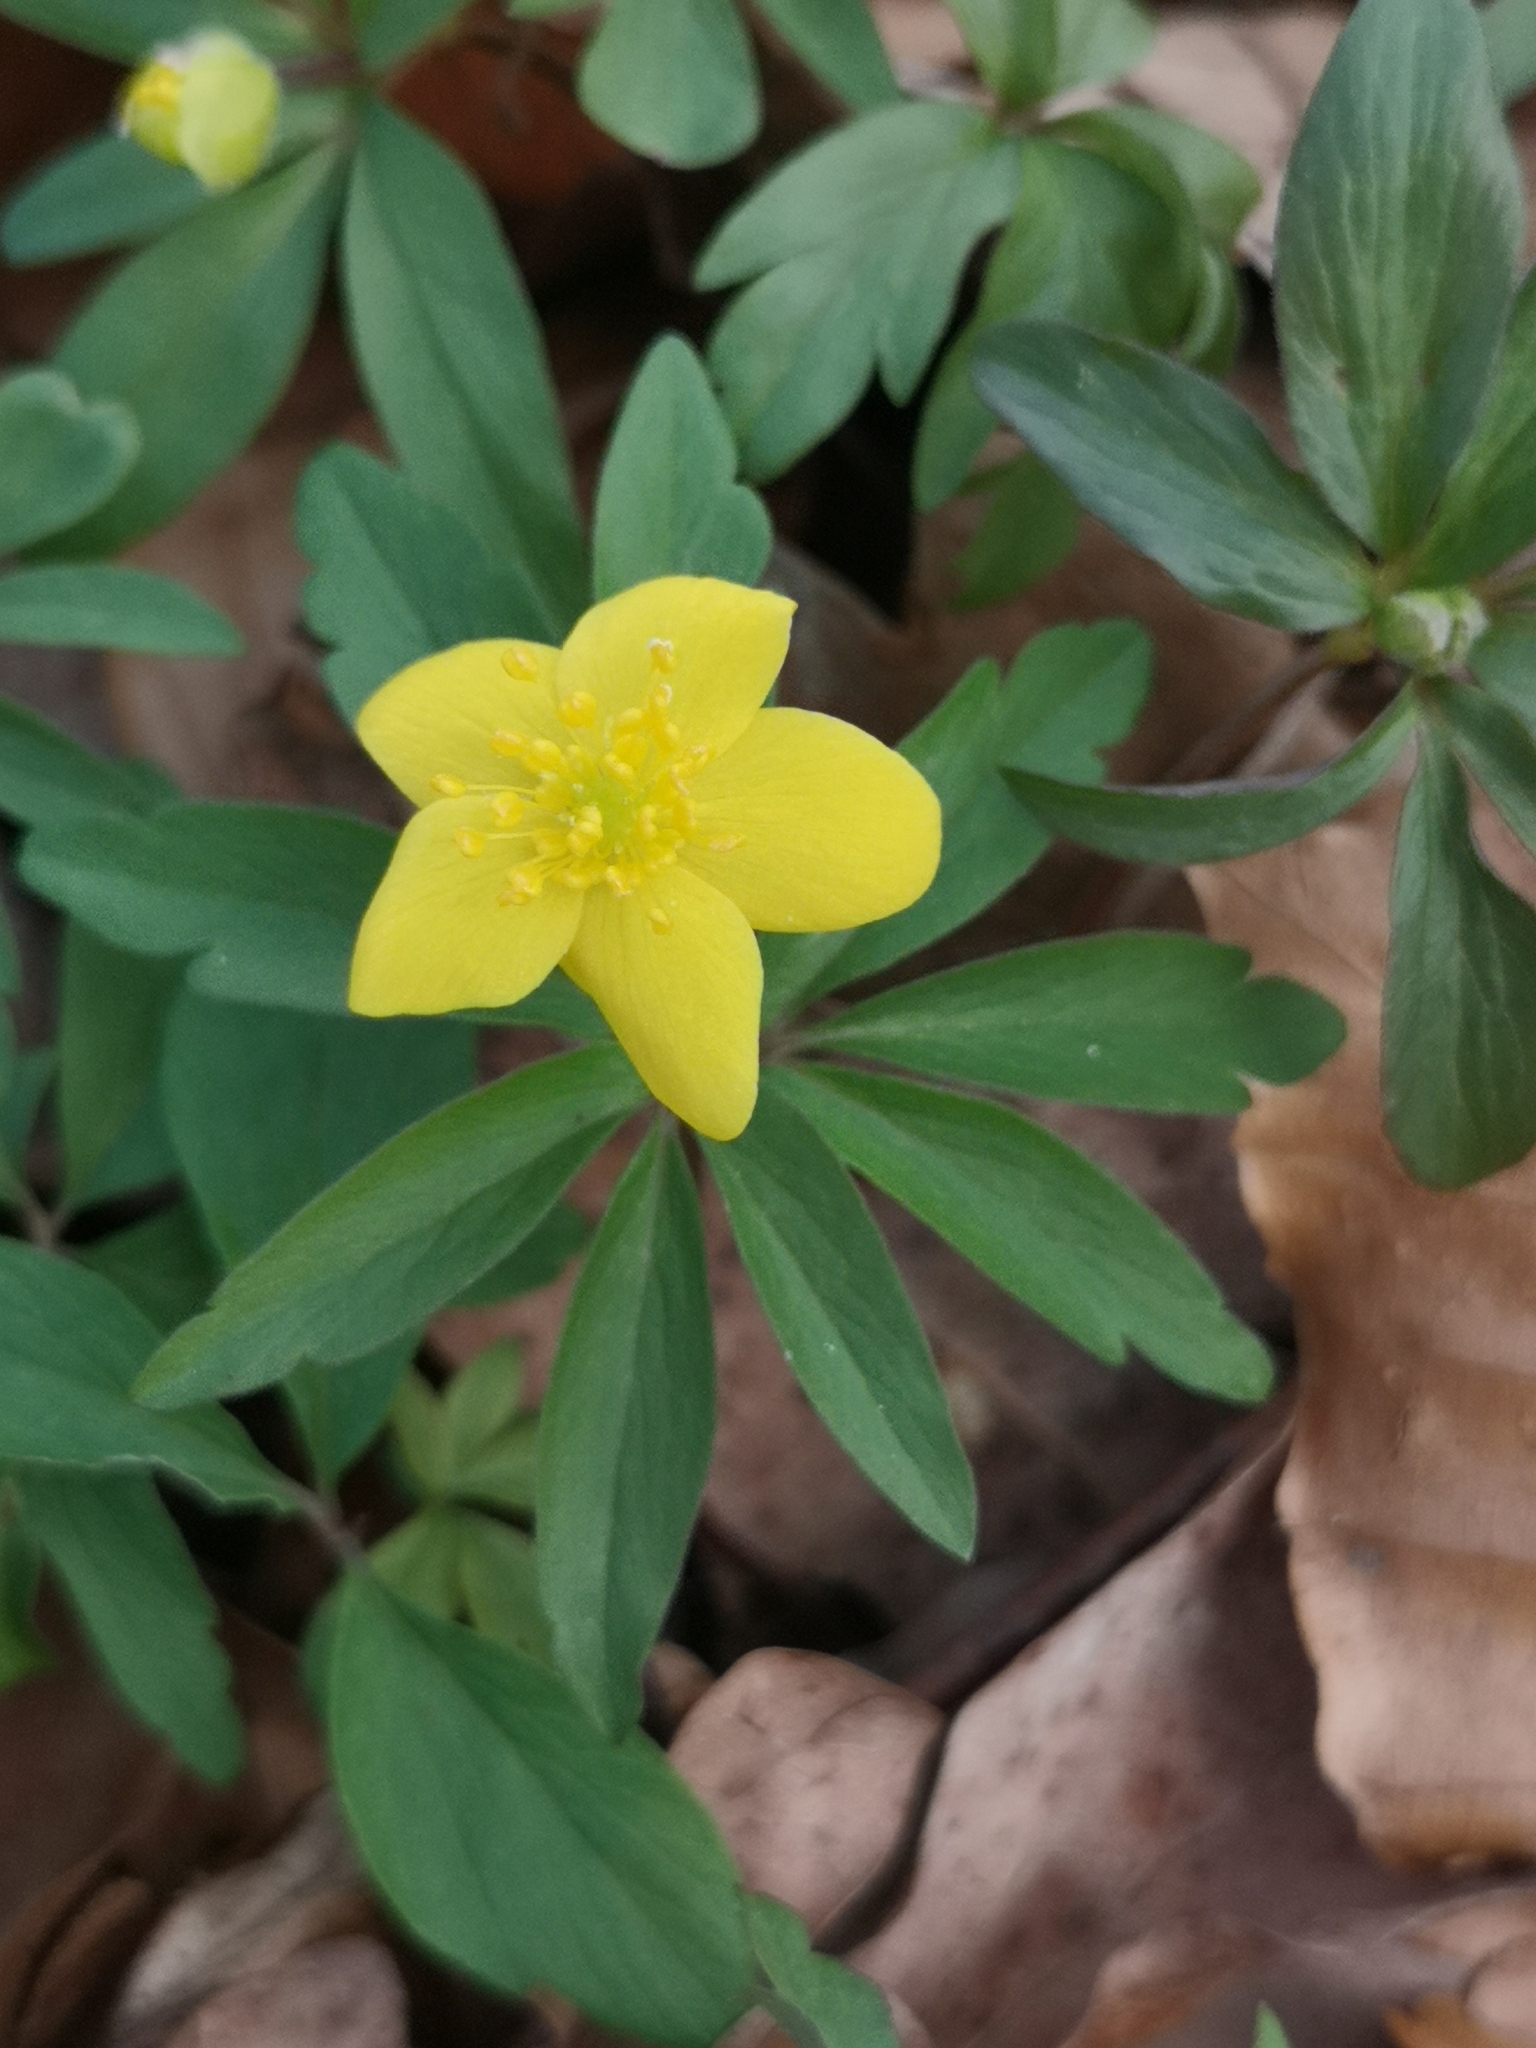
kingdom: Plantae
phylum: Tracheophyta
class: Magnoliopsida
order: Ranunculales
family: Ranunculaceae
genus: Anemone
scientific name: Anemone ranunculoides
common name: Yellow anemone
